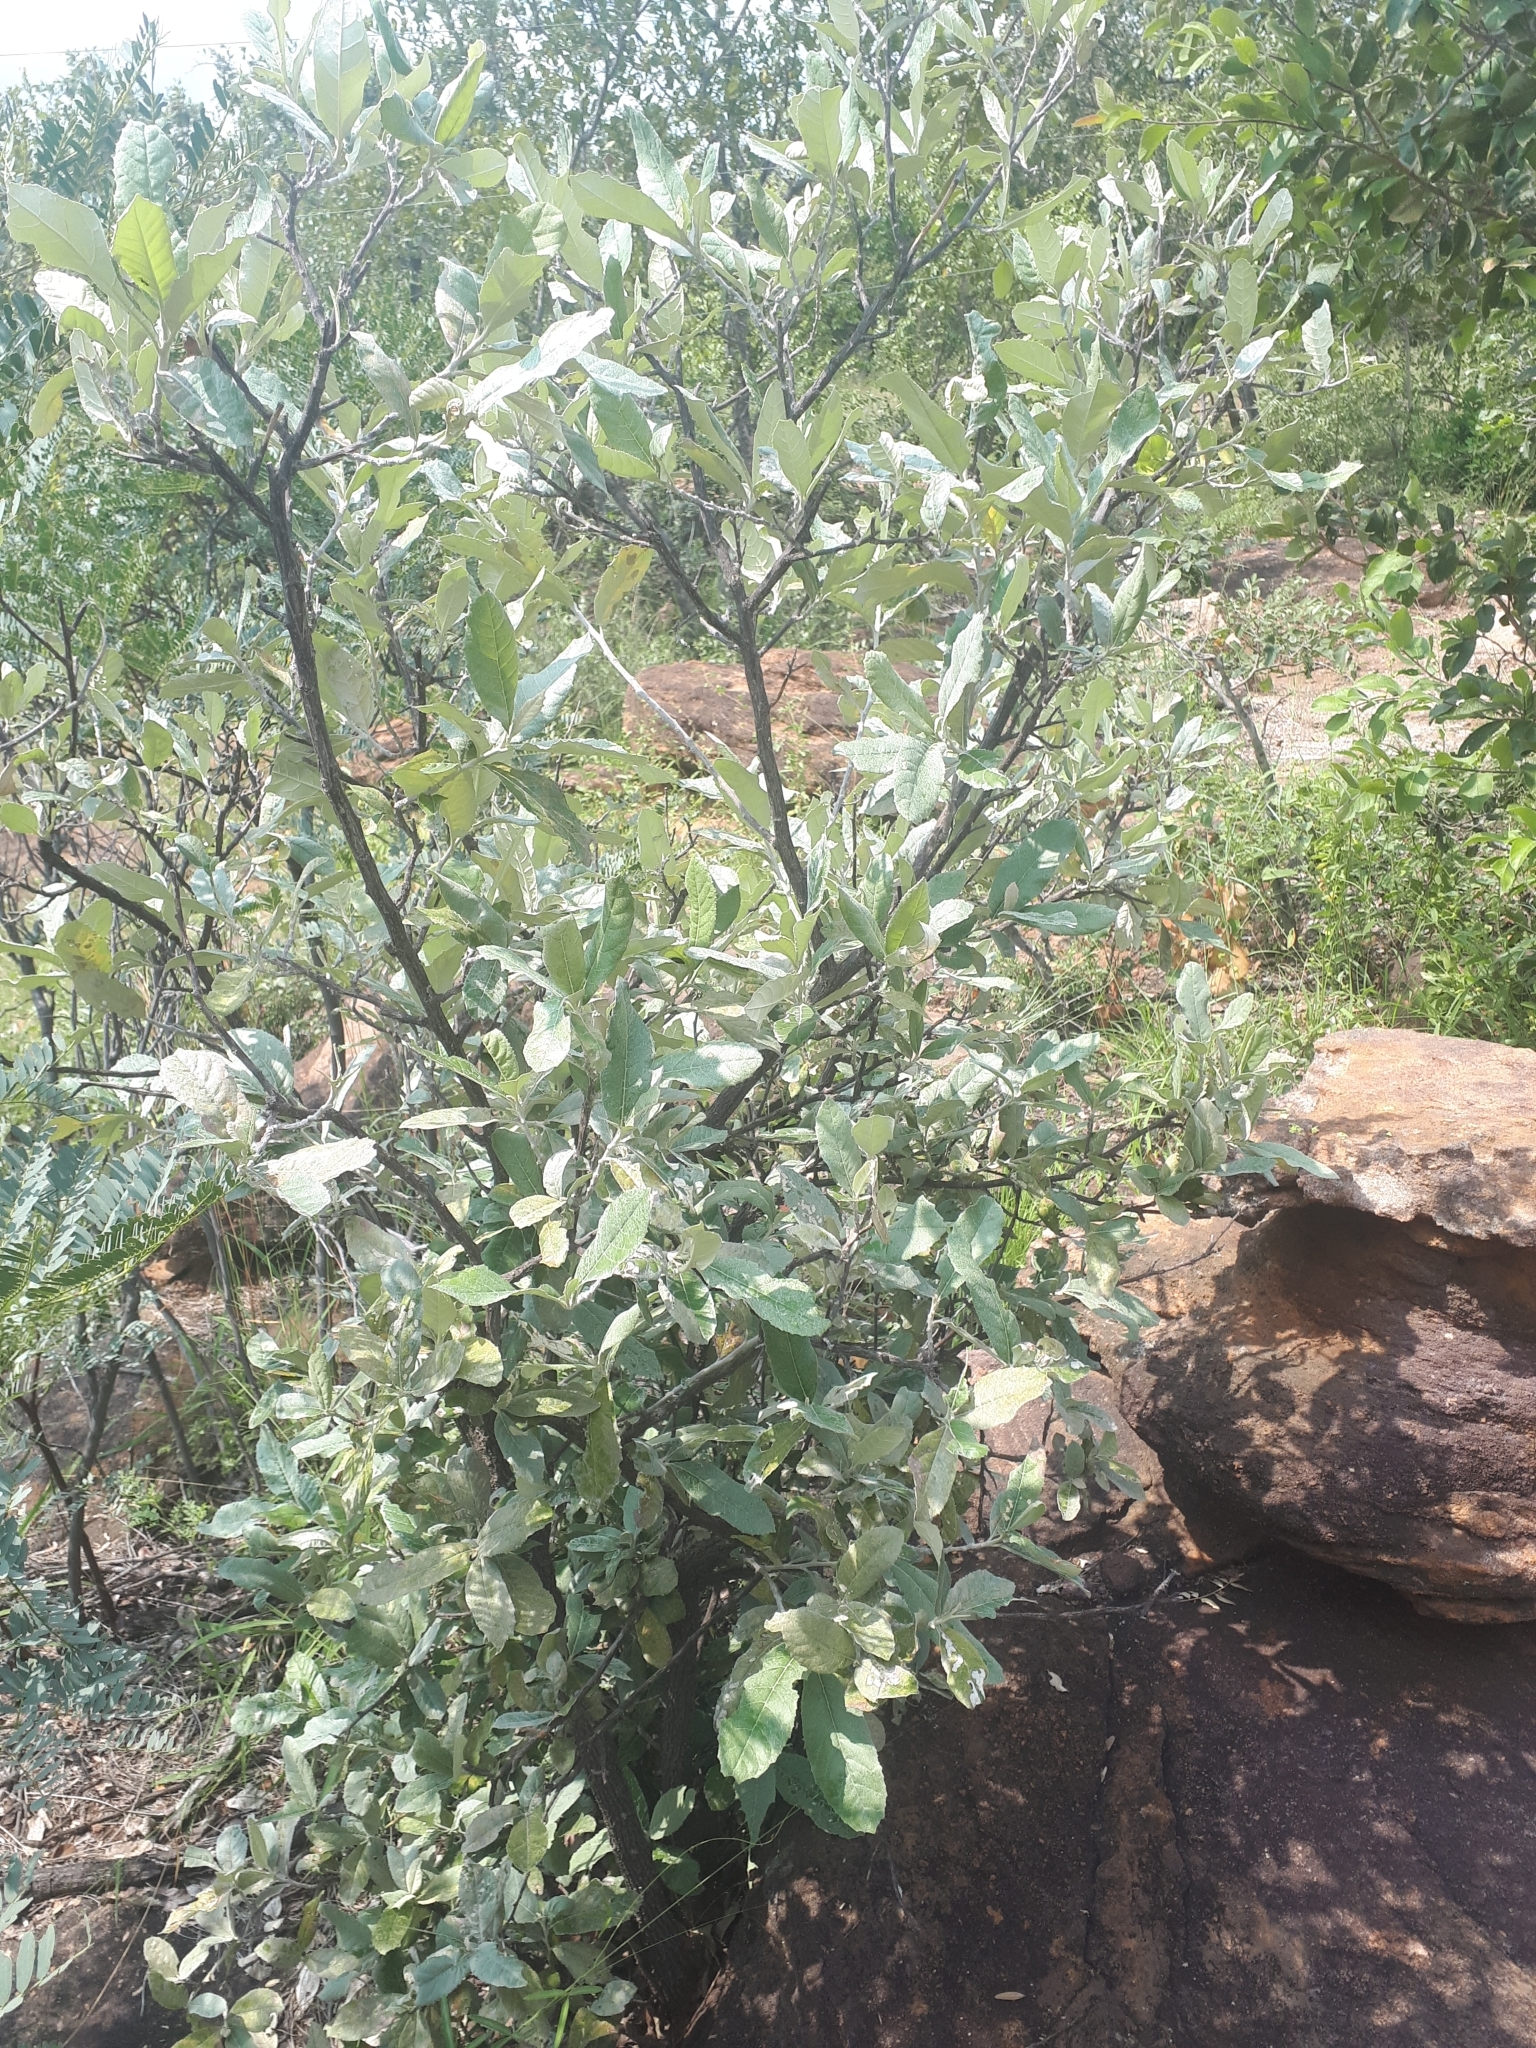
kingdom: Plantae
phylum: Tracheophyta
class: Magnoliopsida
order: Asterales
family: Asteraceae
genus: Brachylaena
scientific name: Brachylaena discolor
